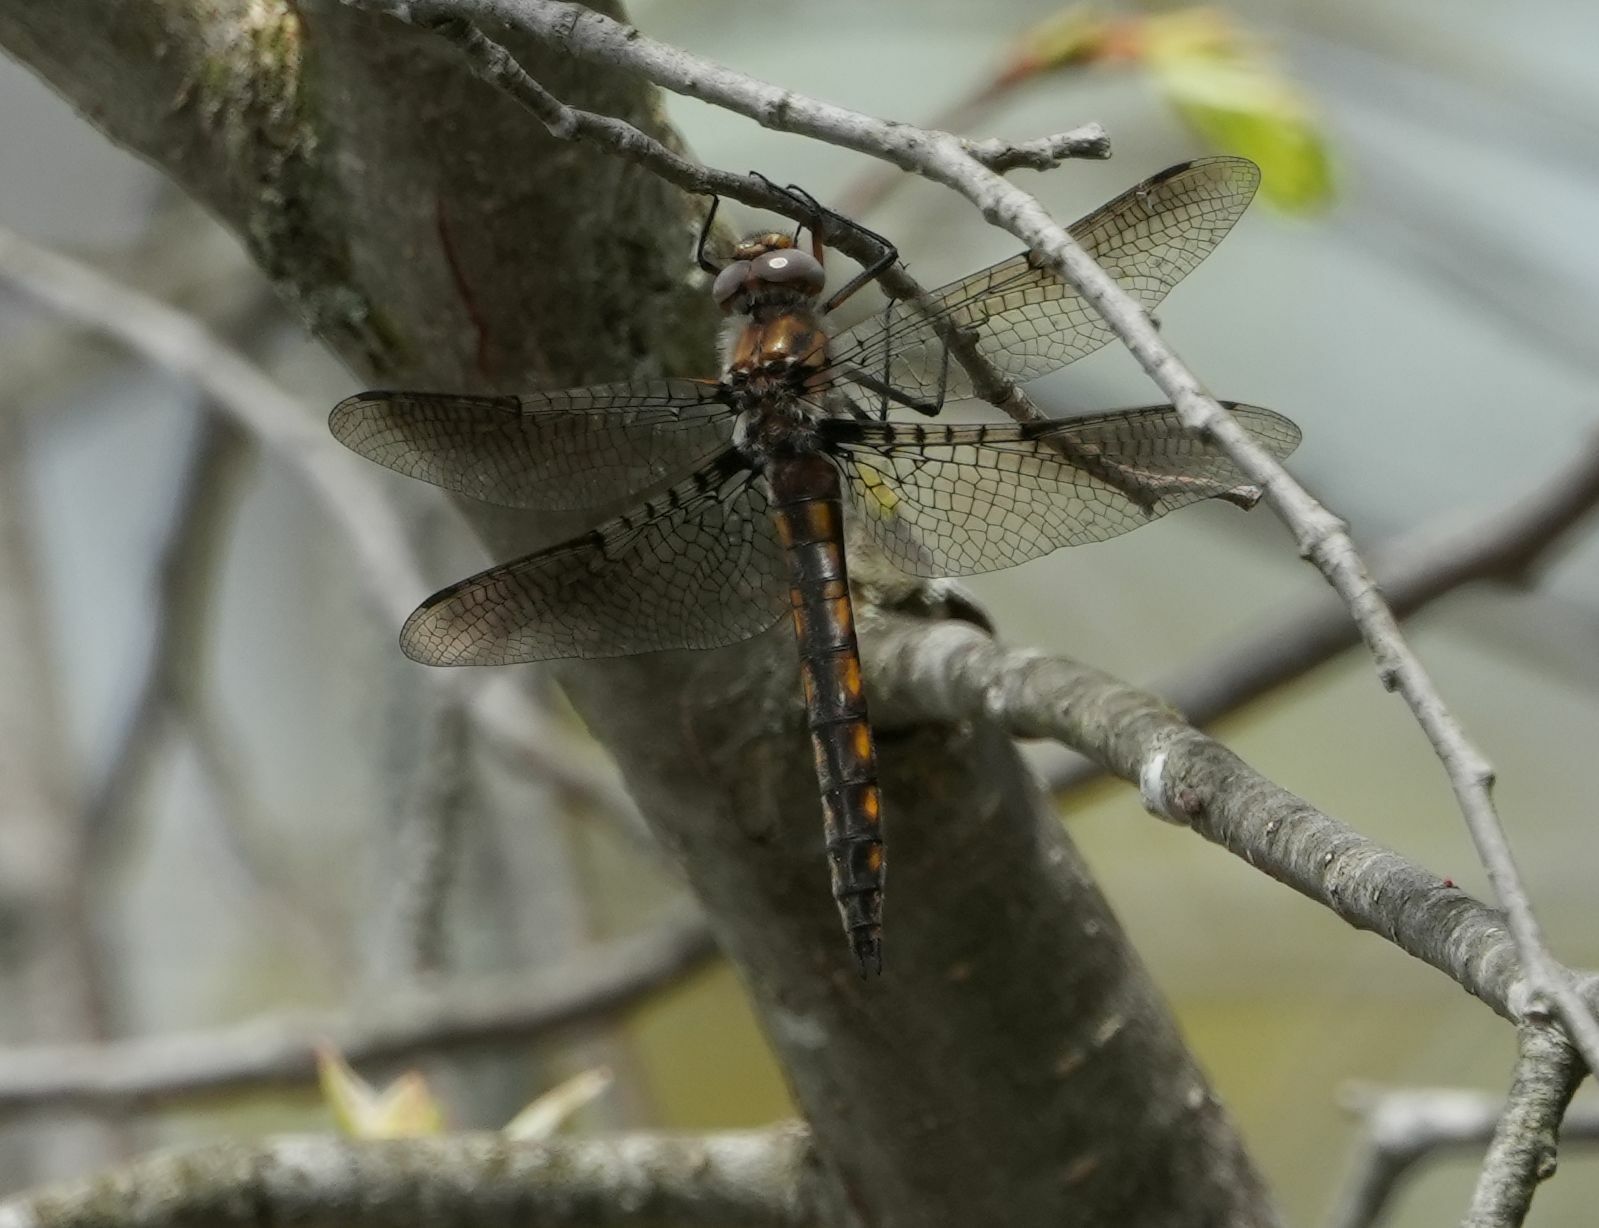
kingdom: Animalia
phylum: Arthropoda
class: Insecta
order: Odonata
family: Corduliidae
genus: Epitheca
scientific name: Epitheca canis
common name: Beaverpond baskettail
